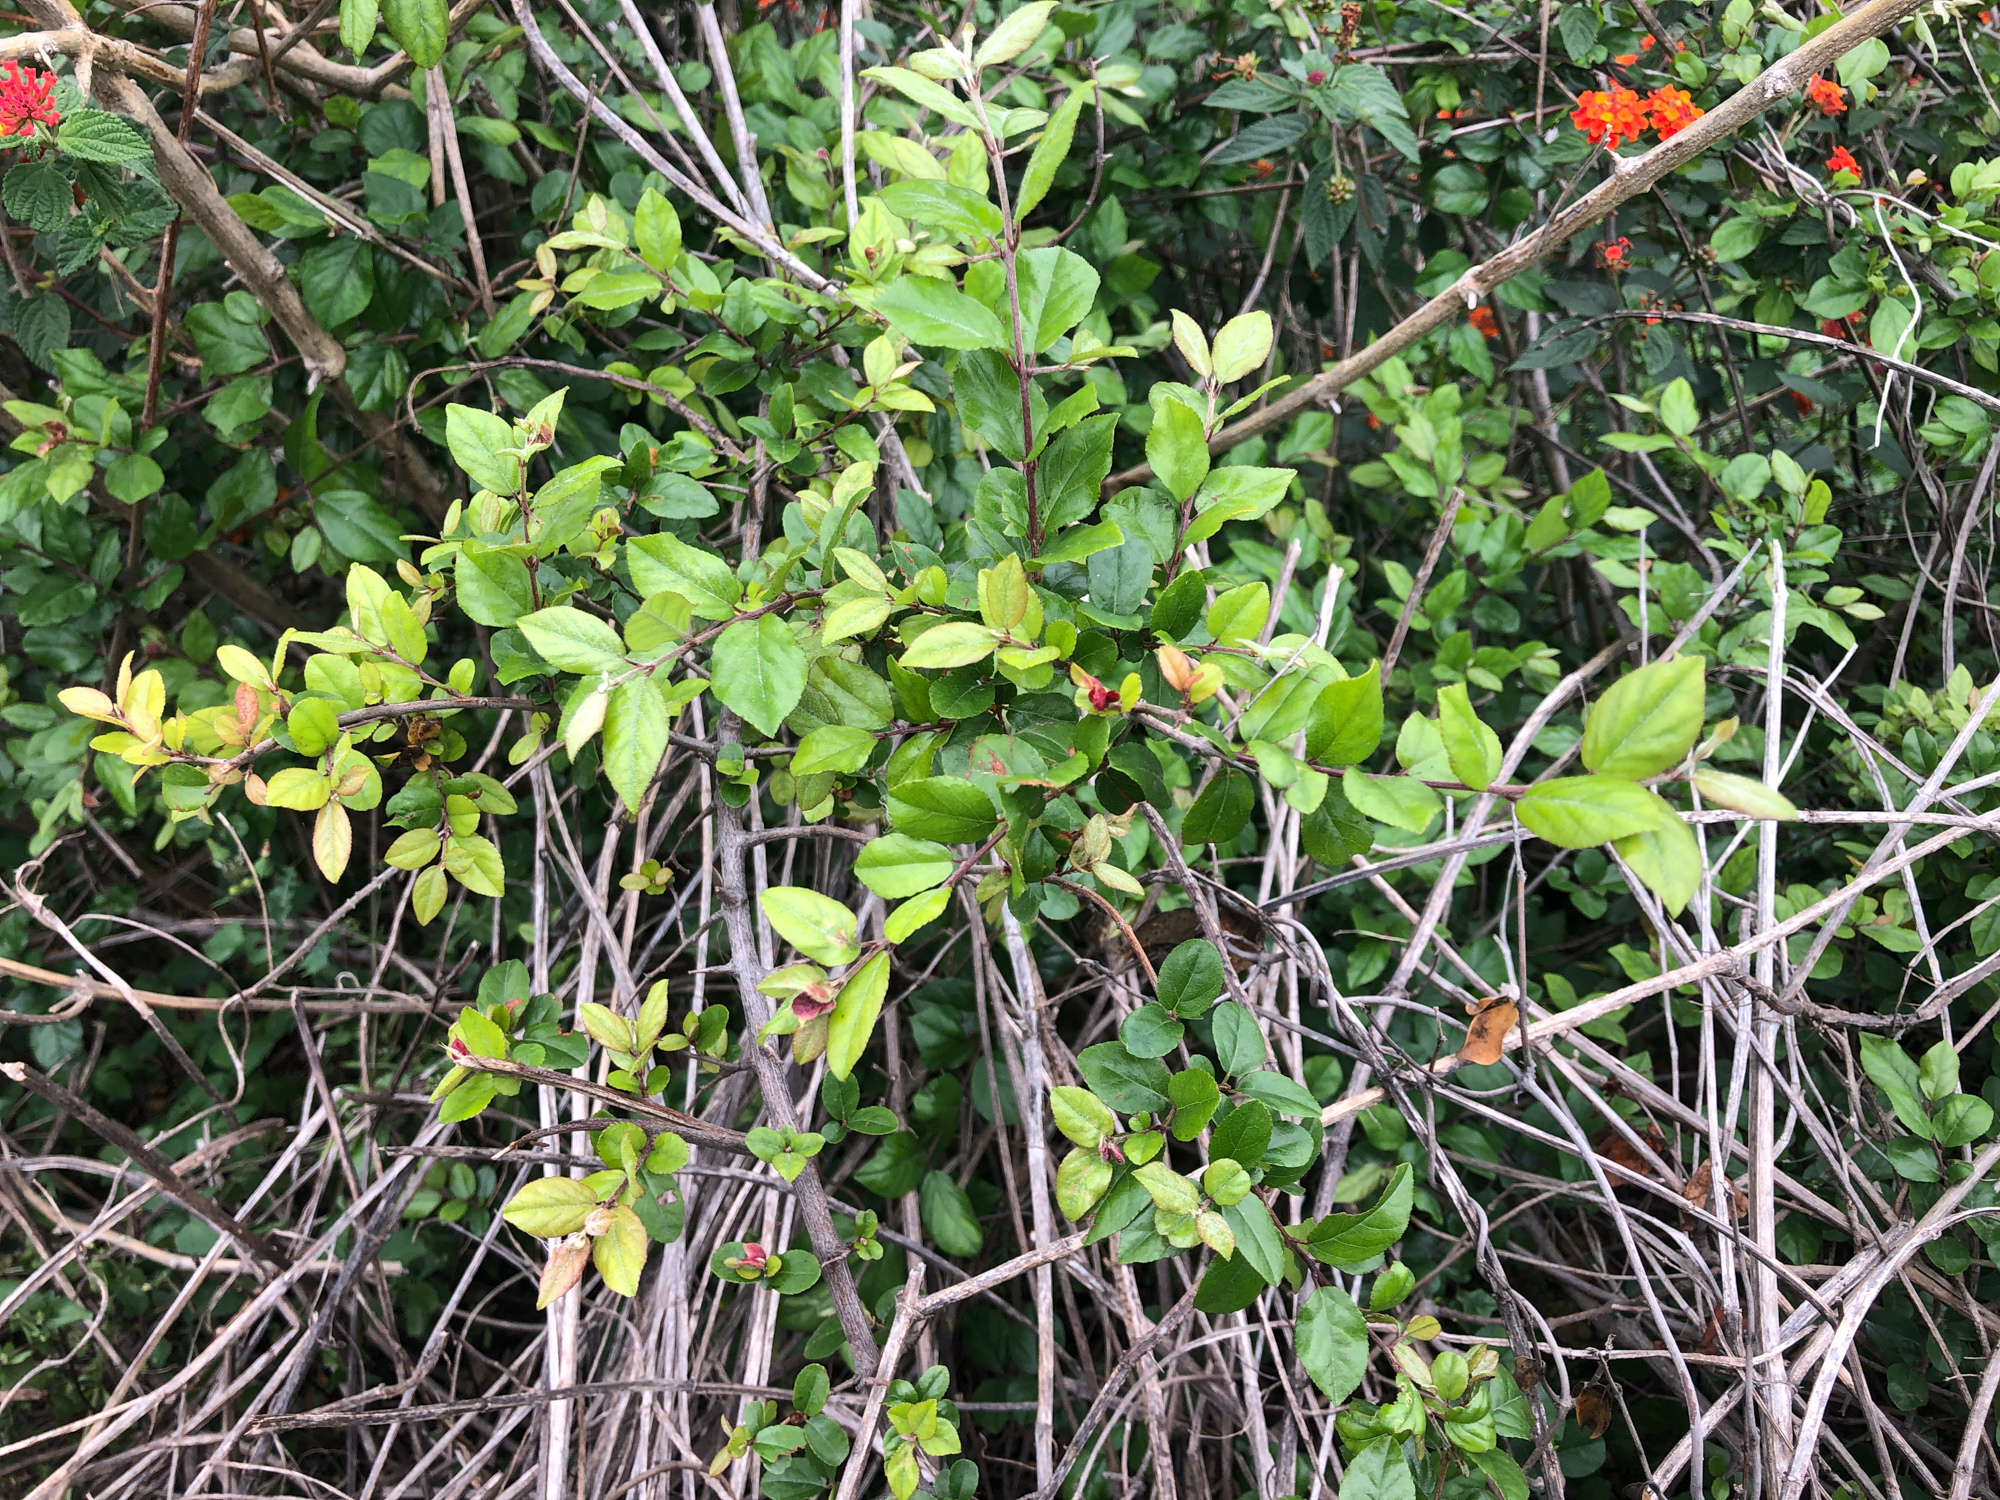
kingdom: Plantae
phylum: Tracheophyta
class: Magnoliopsida
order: Rosales
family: Rhamnaceae
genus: Sageretia
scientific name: Sageretia thea
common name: Pauper's-tea
